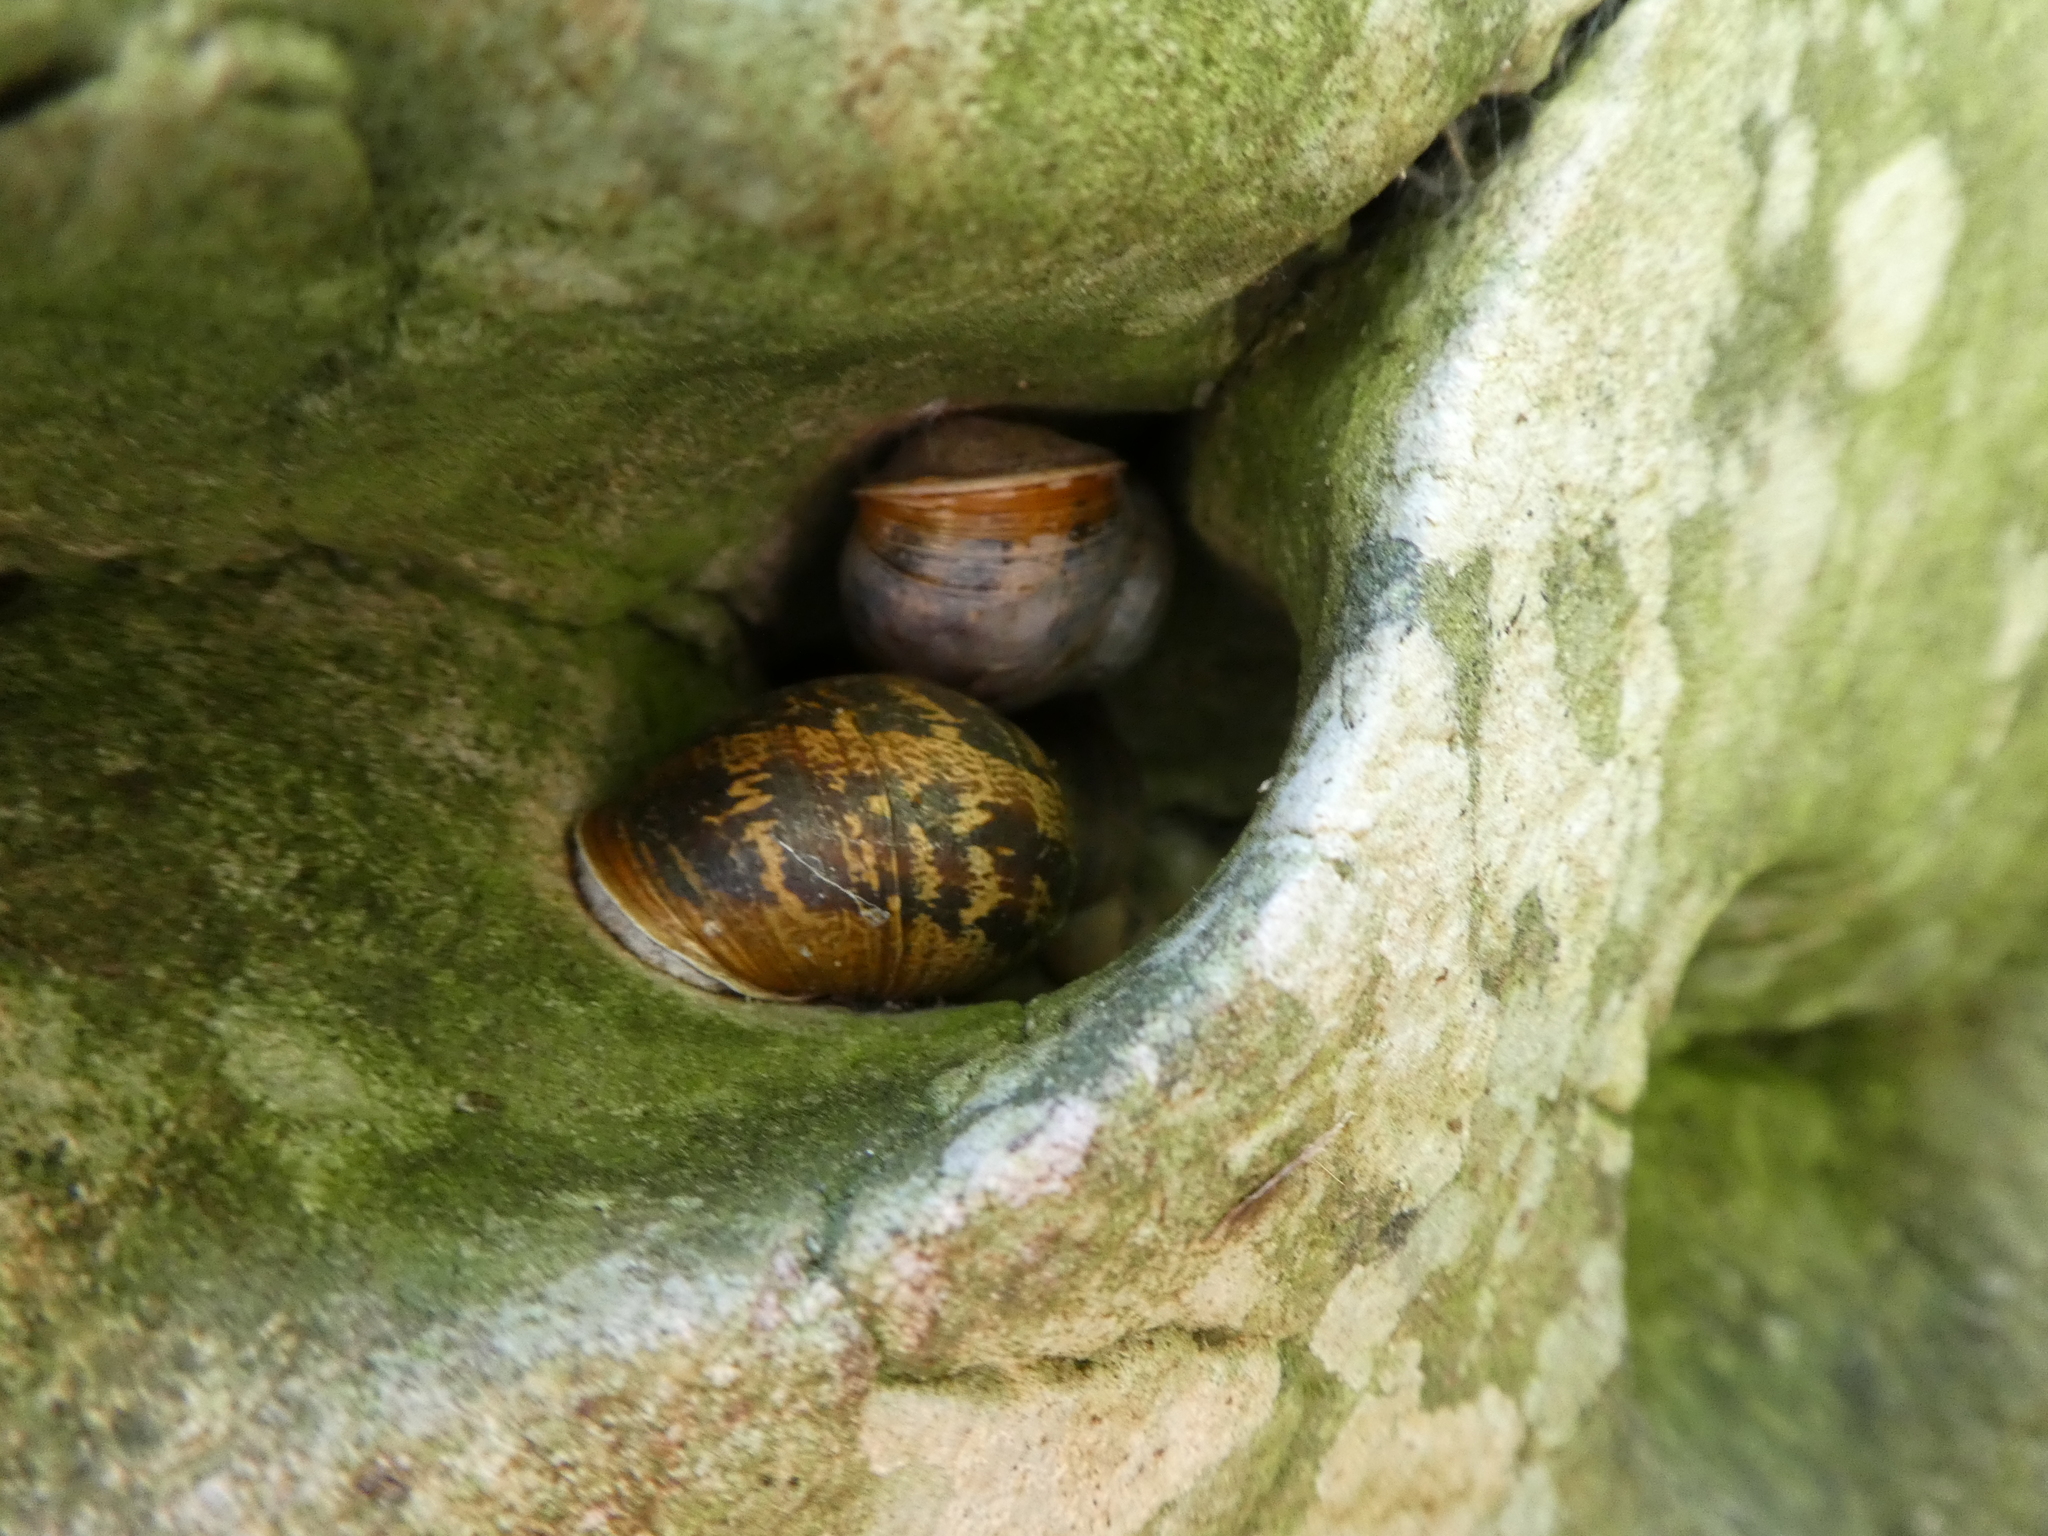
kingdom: Animalia
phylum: Mollusca
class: Gastropoda
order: Stylommatophora
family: Helicidae
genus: Cornu
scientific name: Cornu aspersum
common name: Brown garden snail
